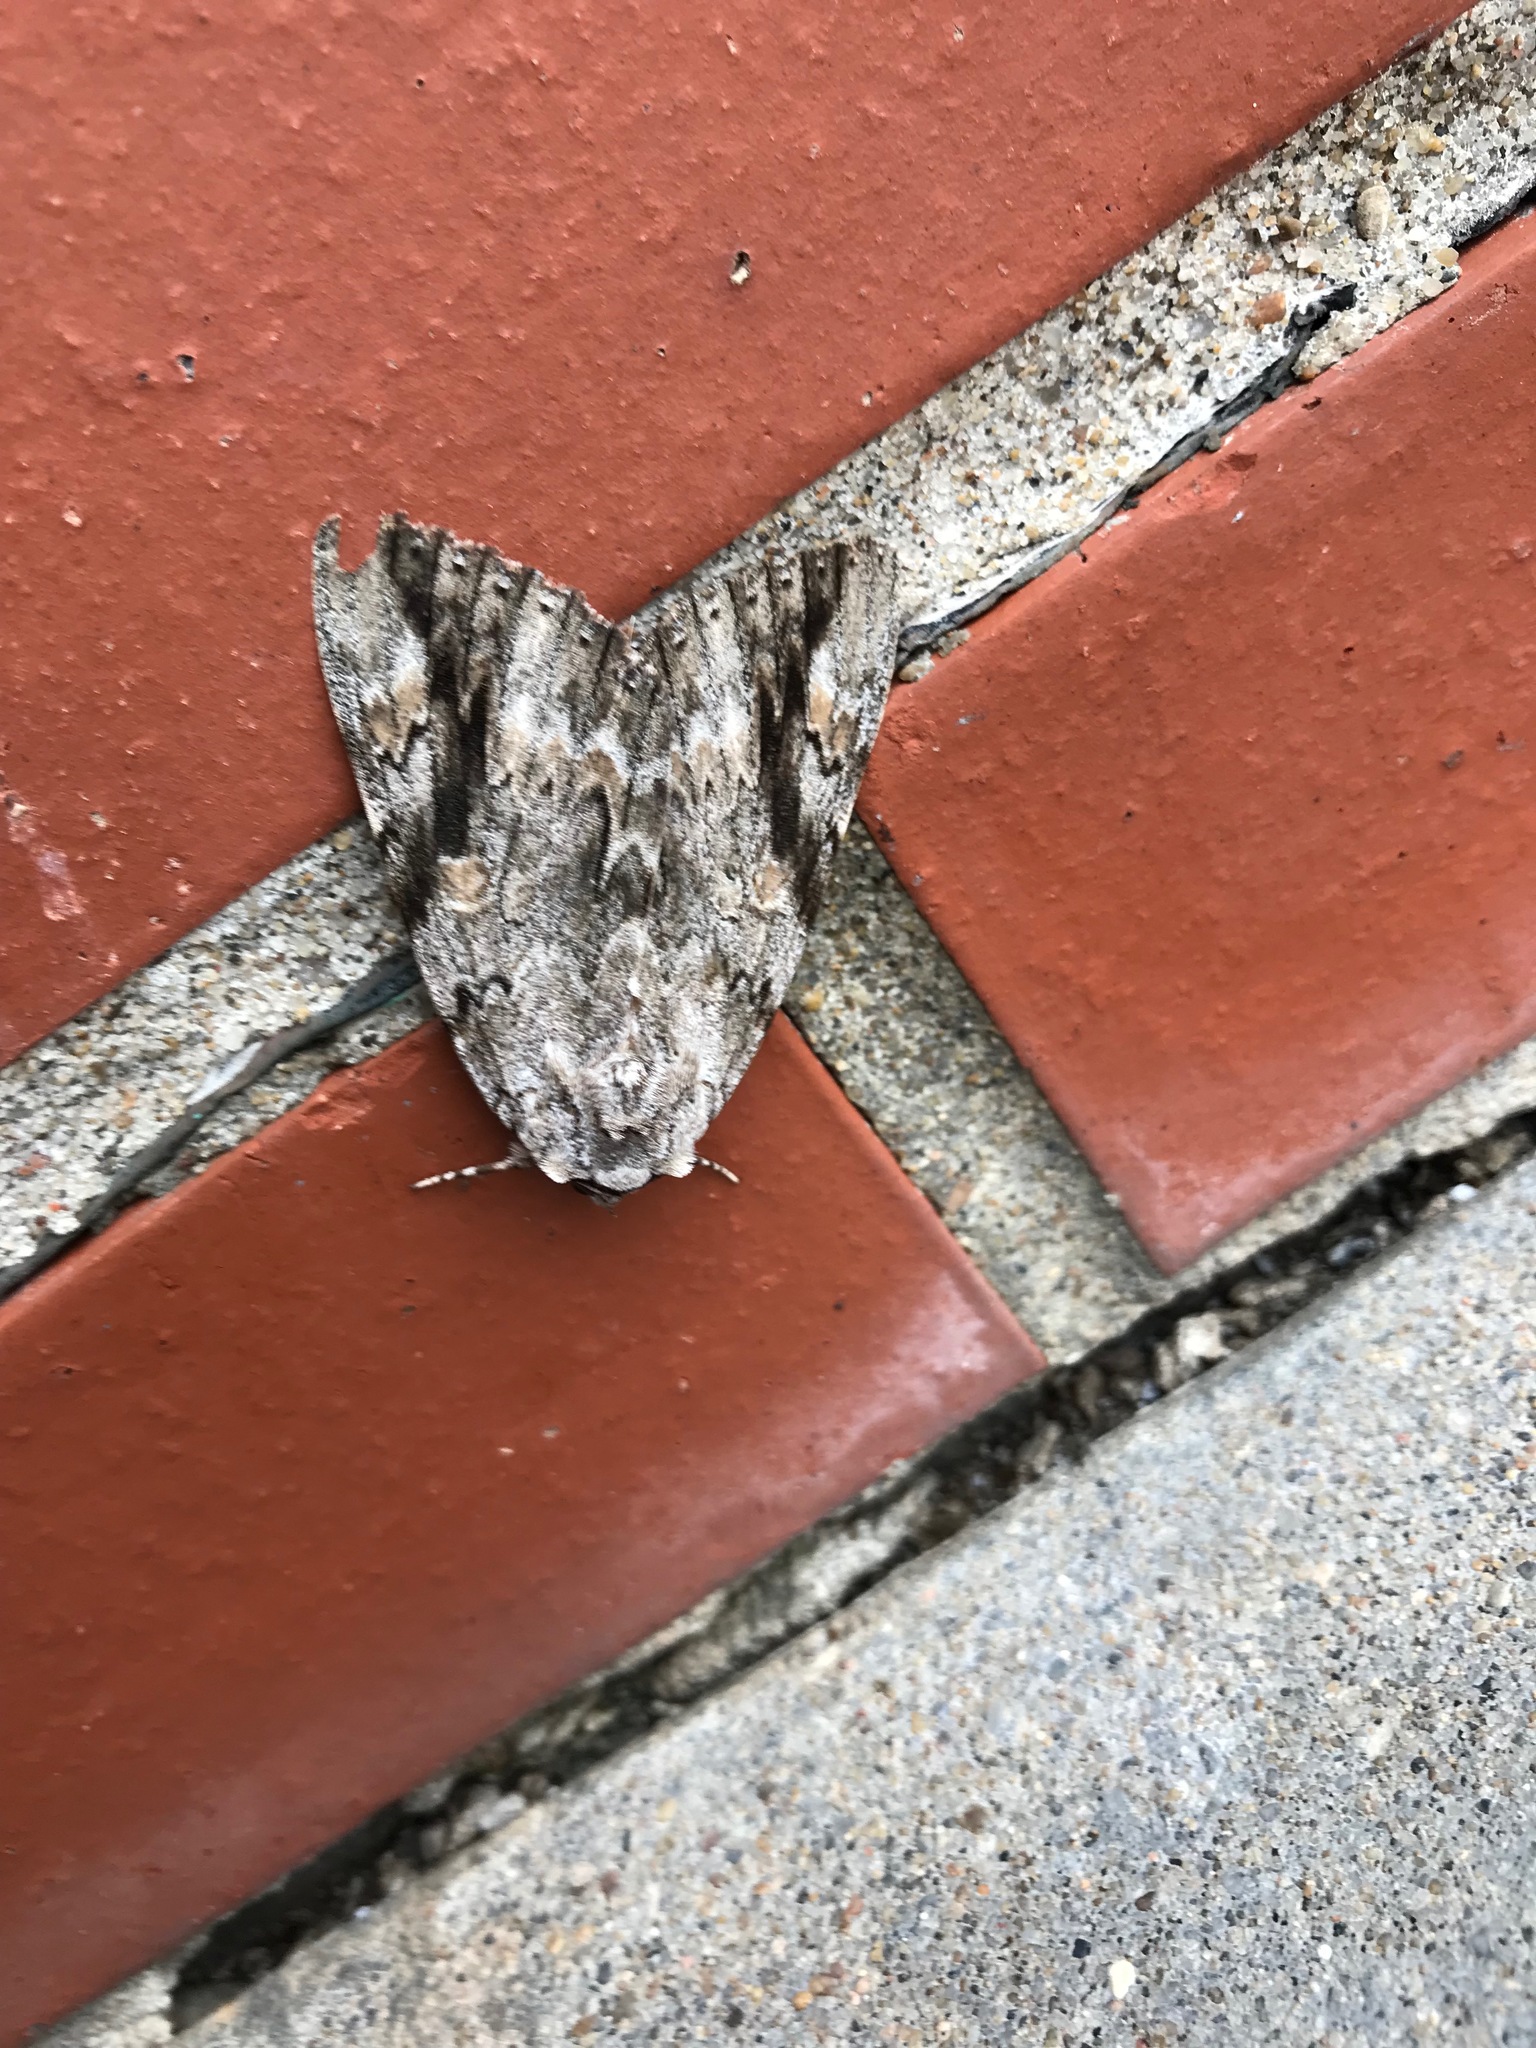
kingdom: Animalia
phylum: Arthropoda
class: Insecta
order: Lepidoptera
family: Erebidae
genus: Catocala
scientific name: Catocala maestosa
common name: Sad underwing
